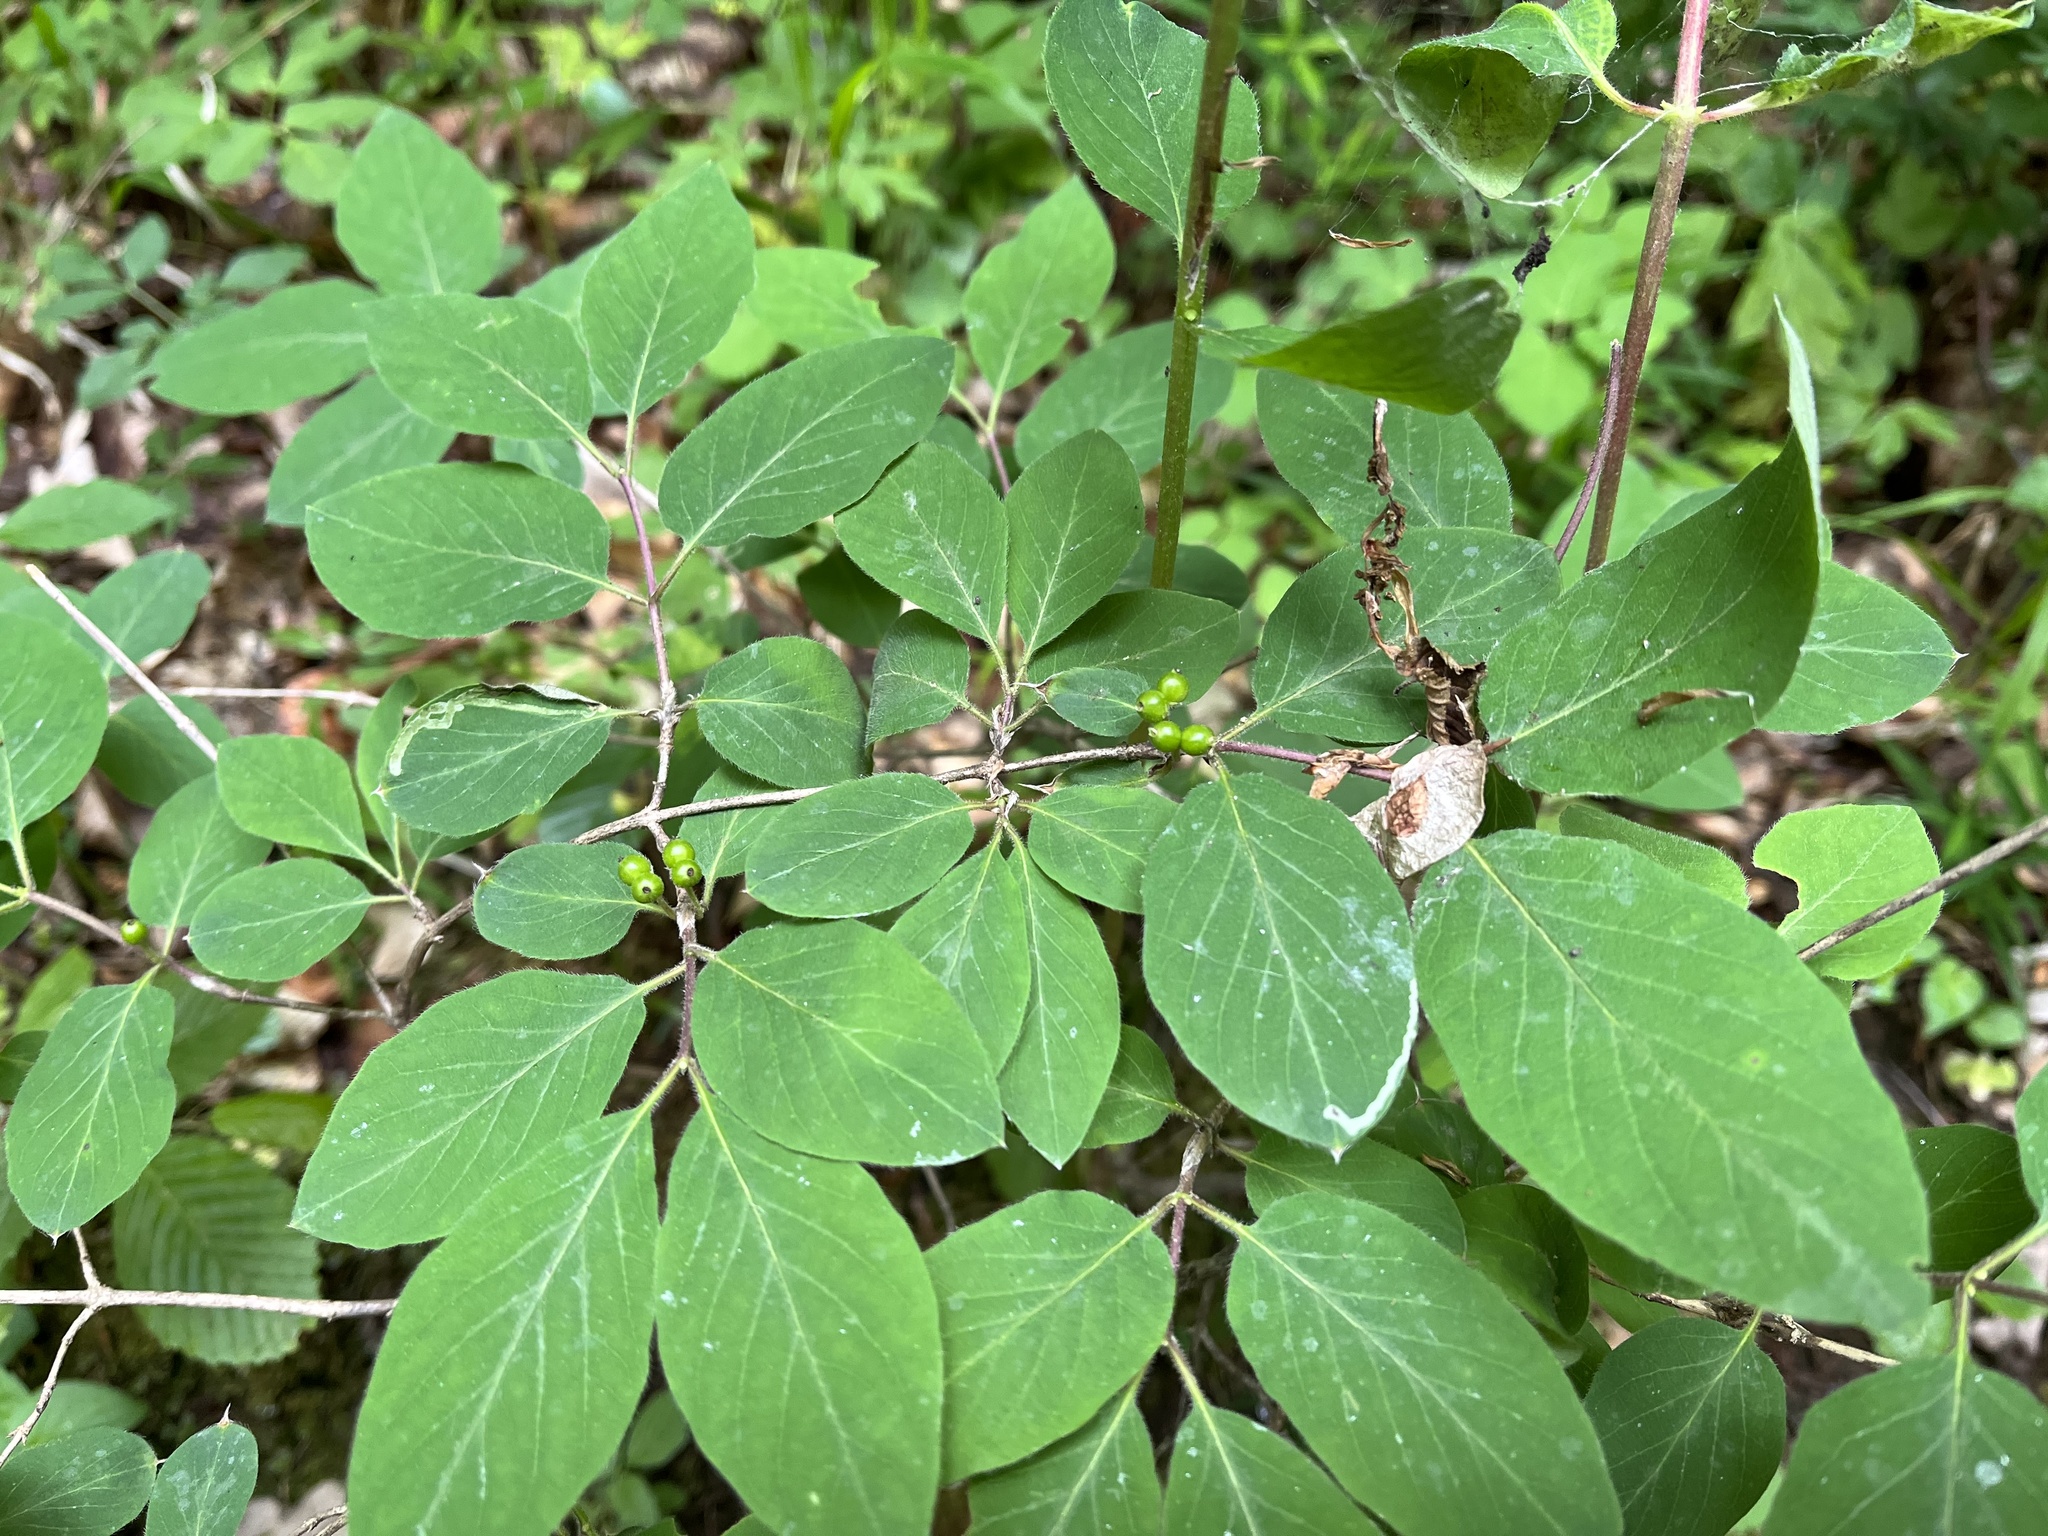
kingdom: Plantae
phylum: Tracheophyta
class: Magnoliopsida
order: Dipsacales
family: Caprifoliaceae
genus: Lonicera
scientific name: Lonicera xylosteum
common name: Fly honeysuckle
